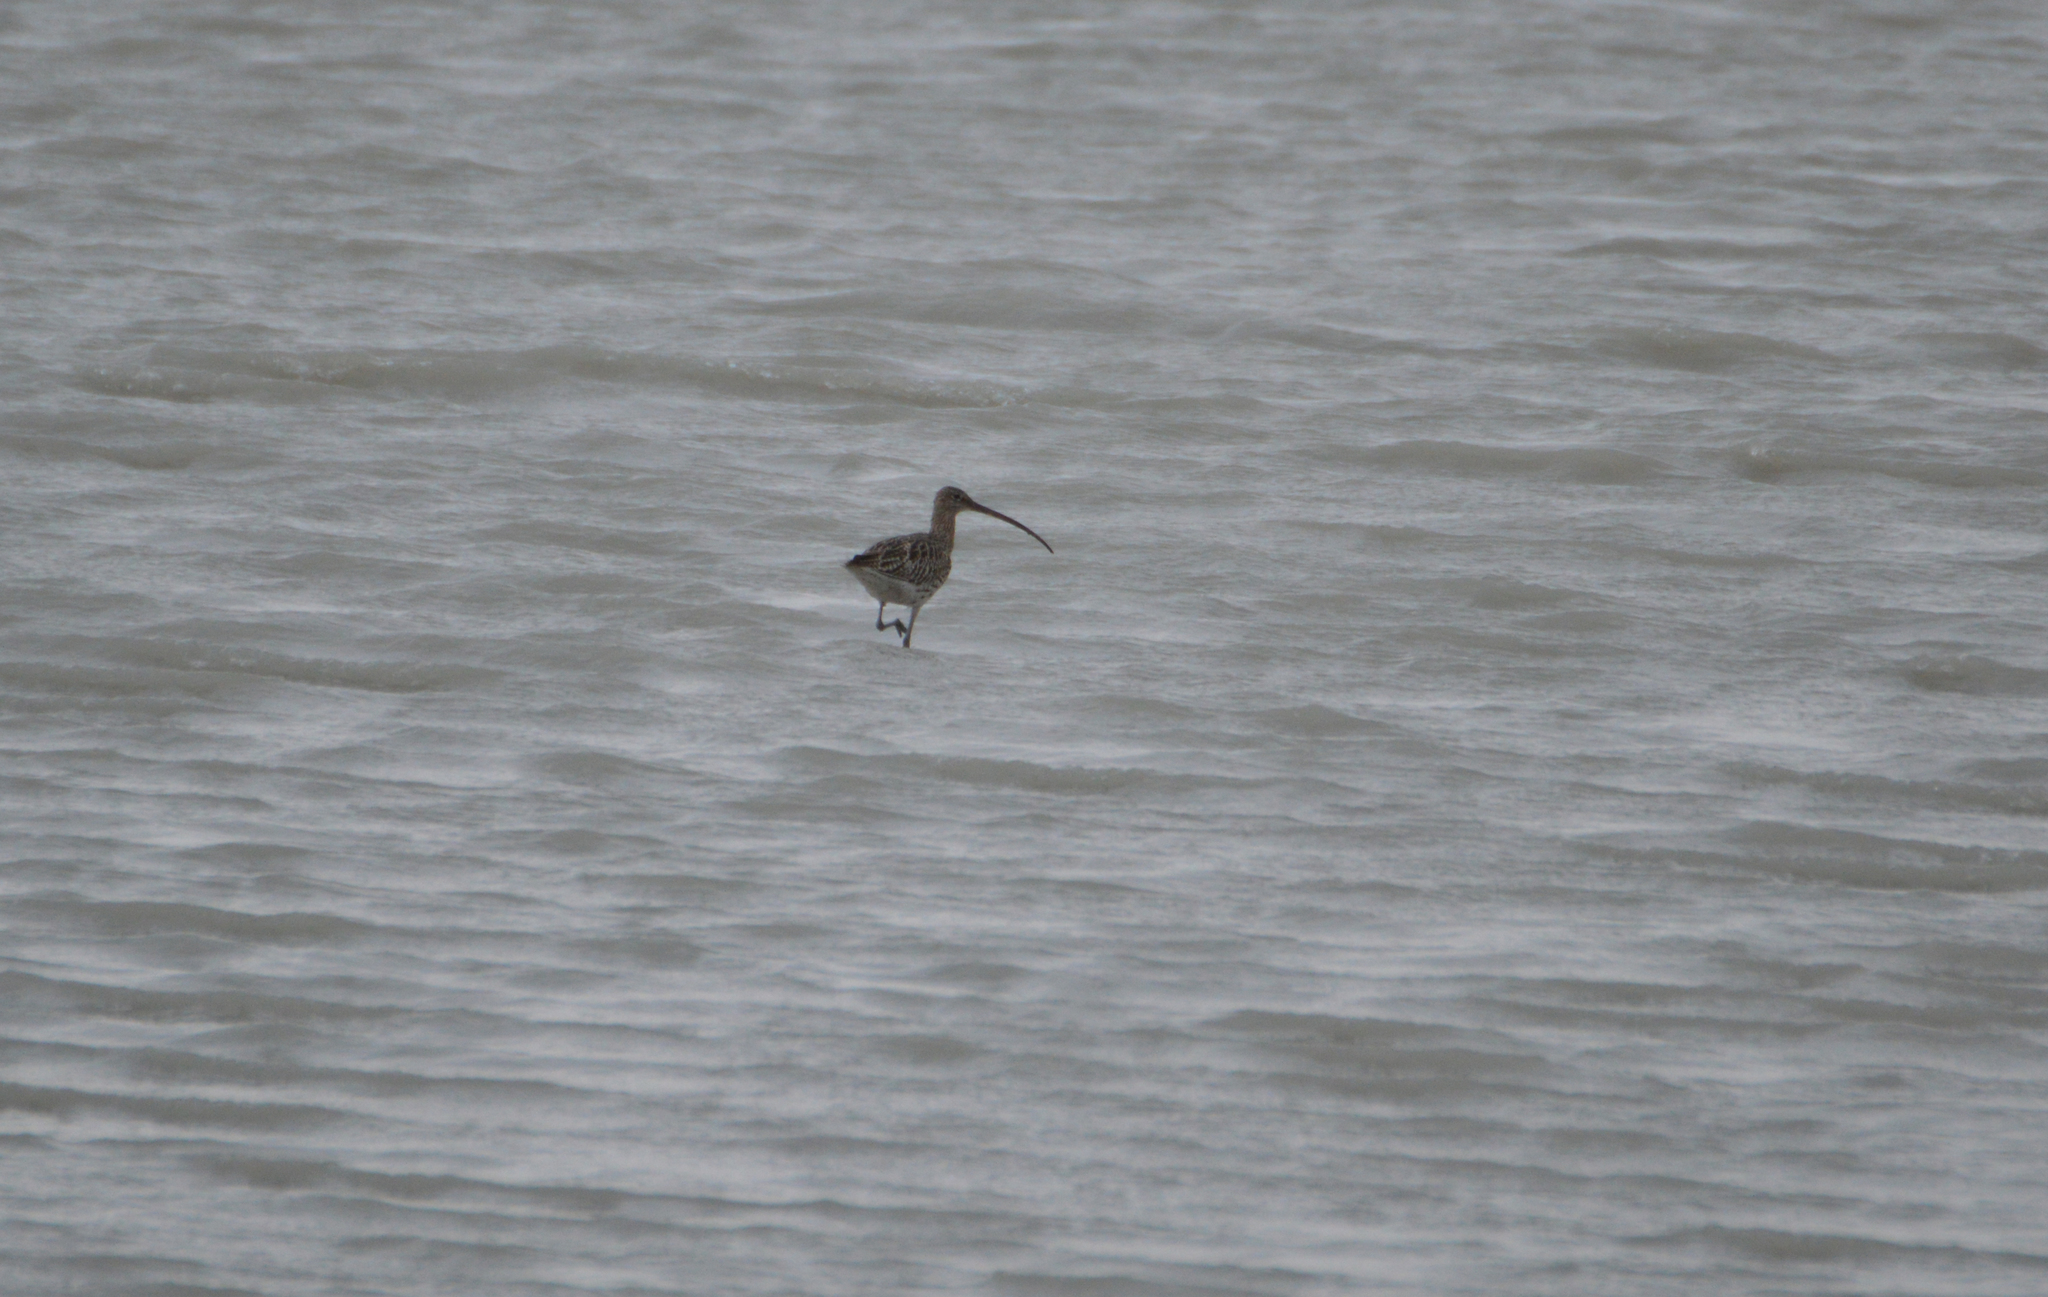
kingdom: Animalia
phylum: Chordata
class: Aves
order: Charadriiformes
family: Scolopacidae
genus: Numenius
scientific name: Numenius arquata
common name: Eurasian curlew
